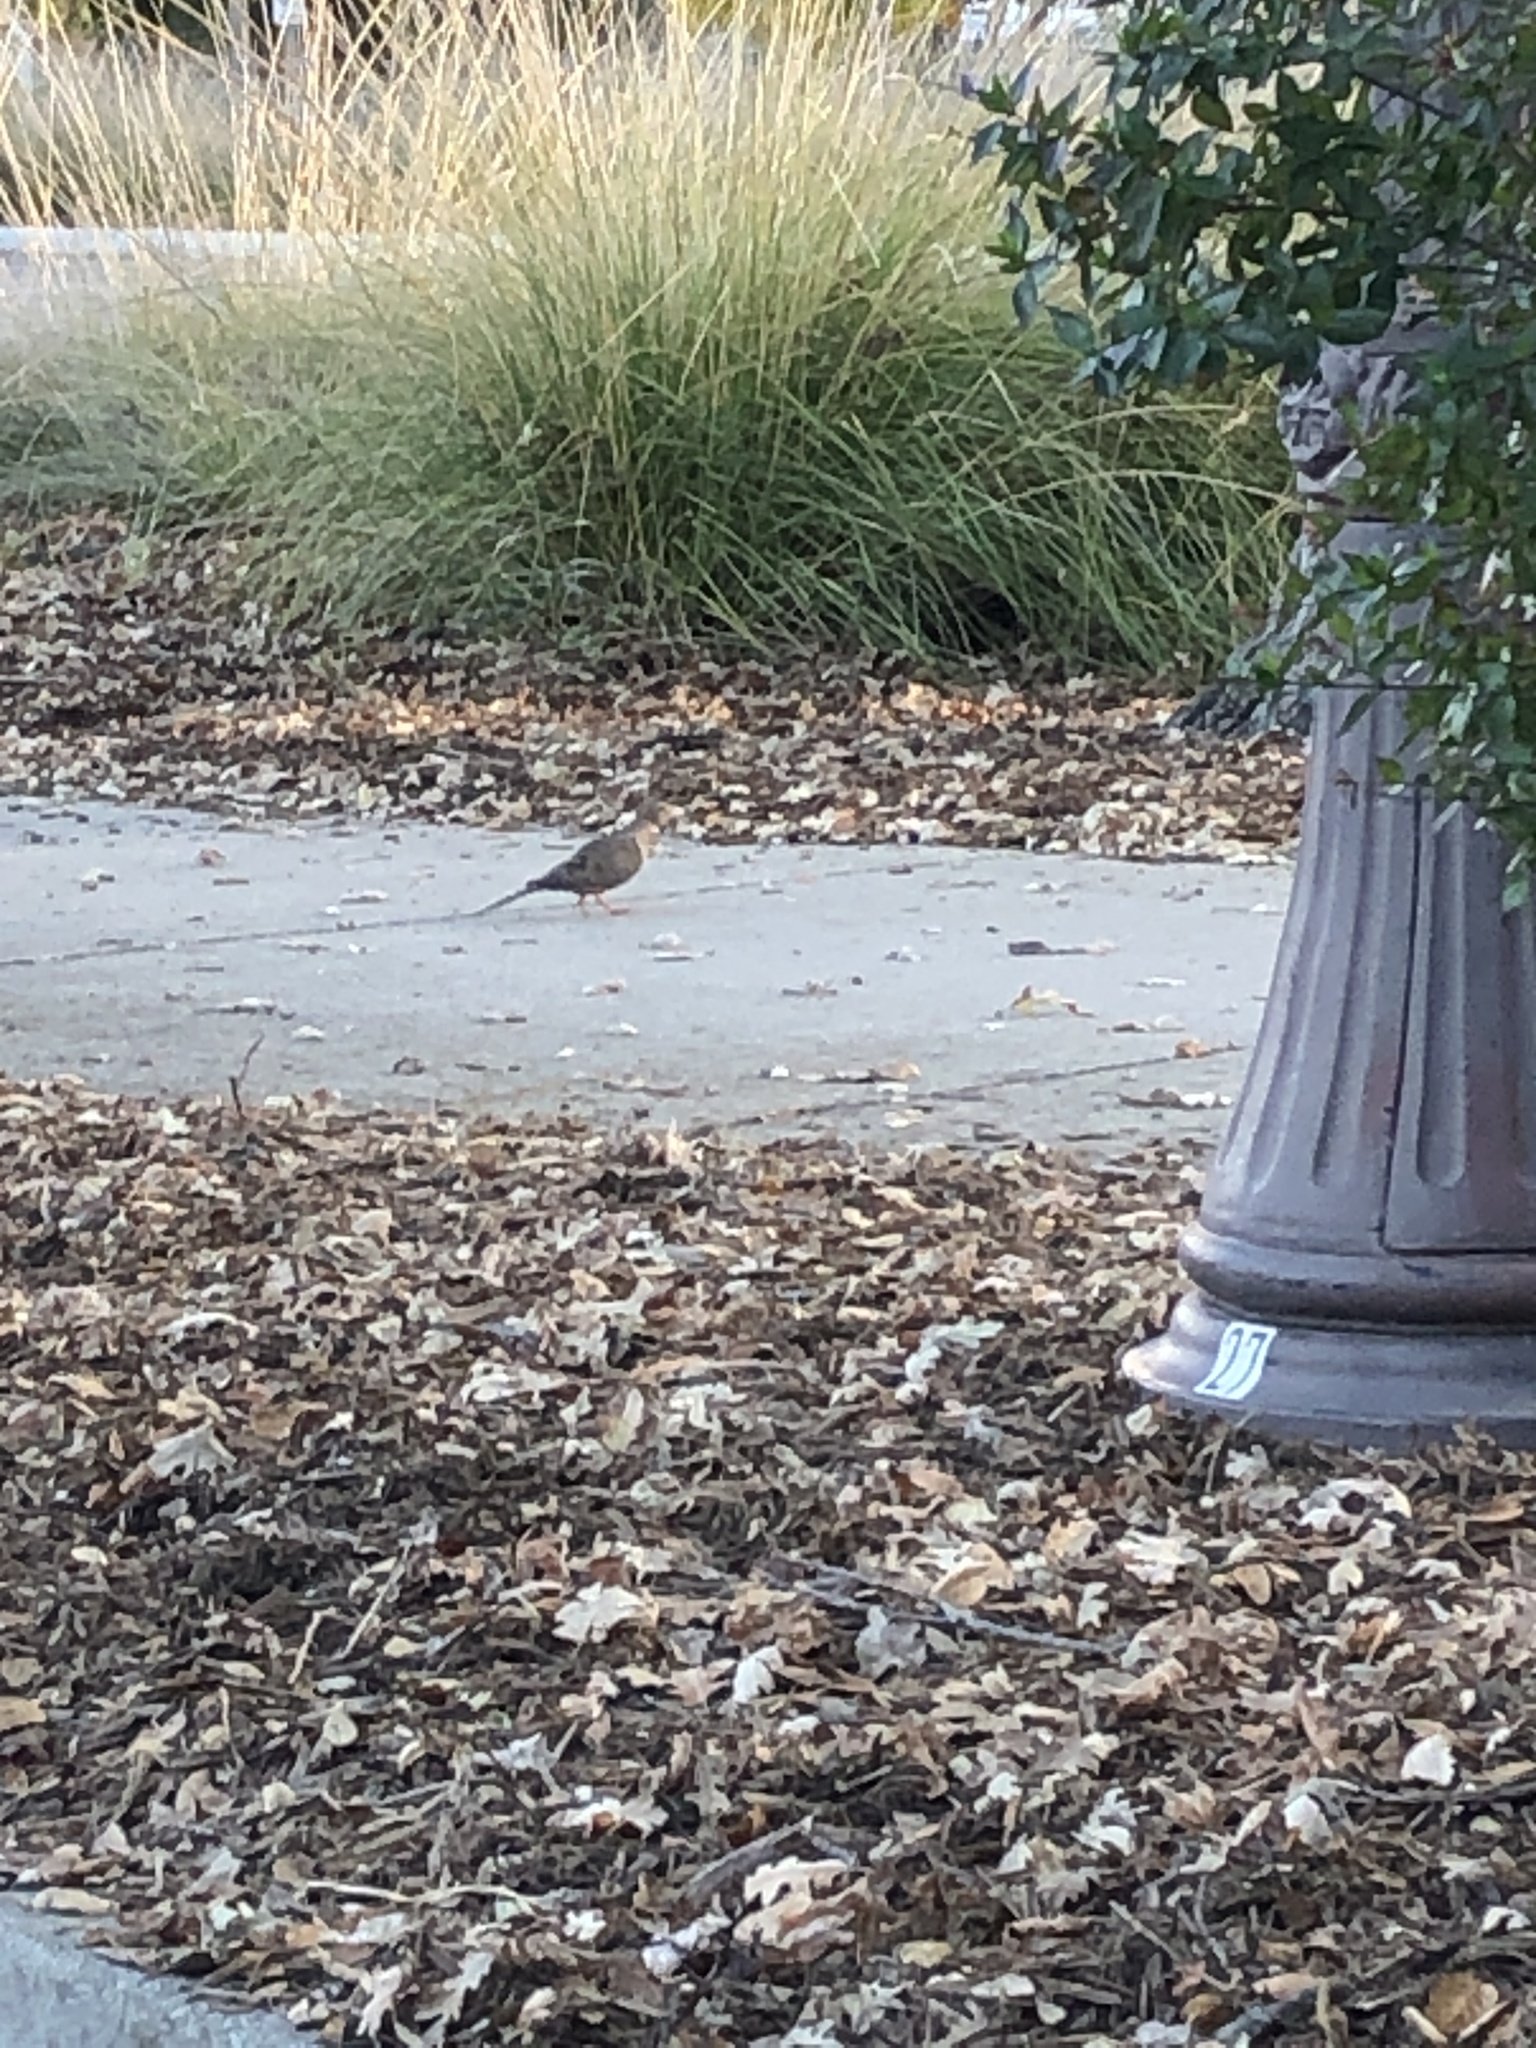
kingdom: Animalia
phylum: Chordata
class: Aves
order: Columbiformes
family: Columbidae
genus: Zenaida
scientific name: Zenaida macroura
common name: Mourning dove
